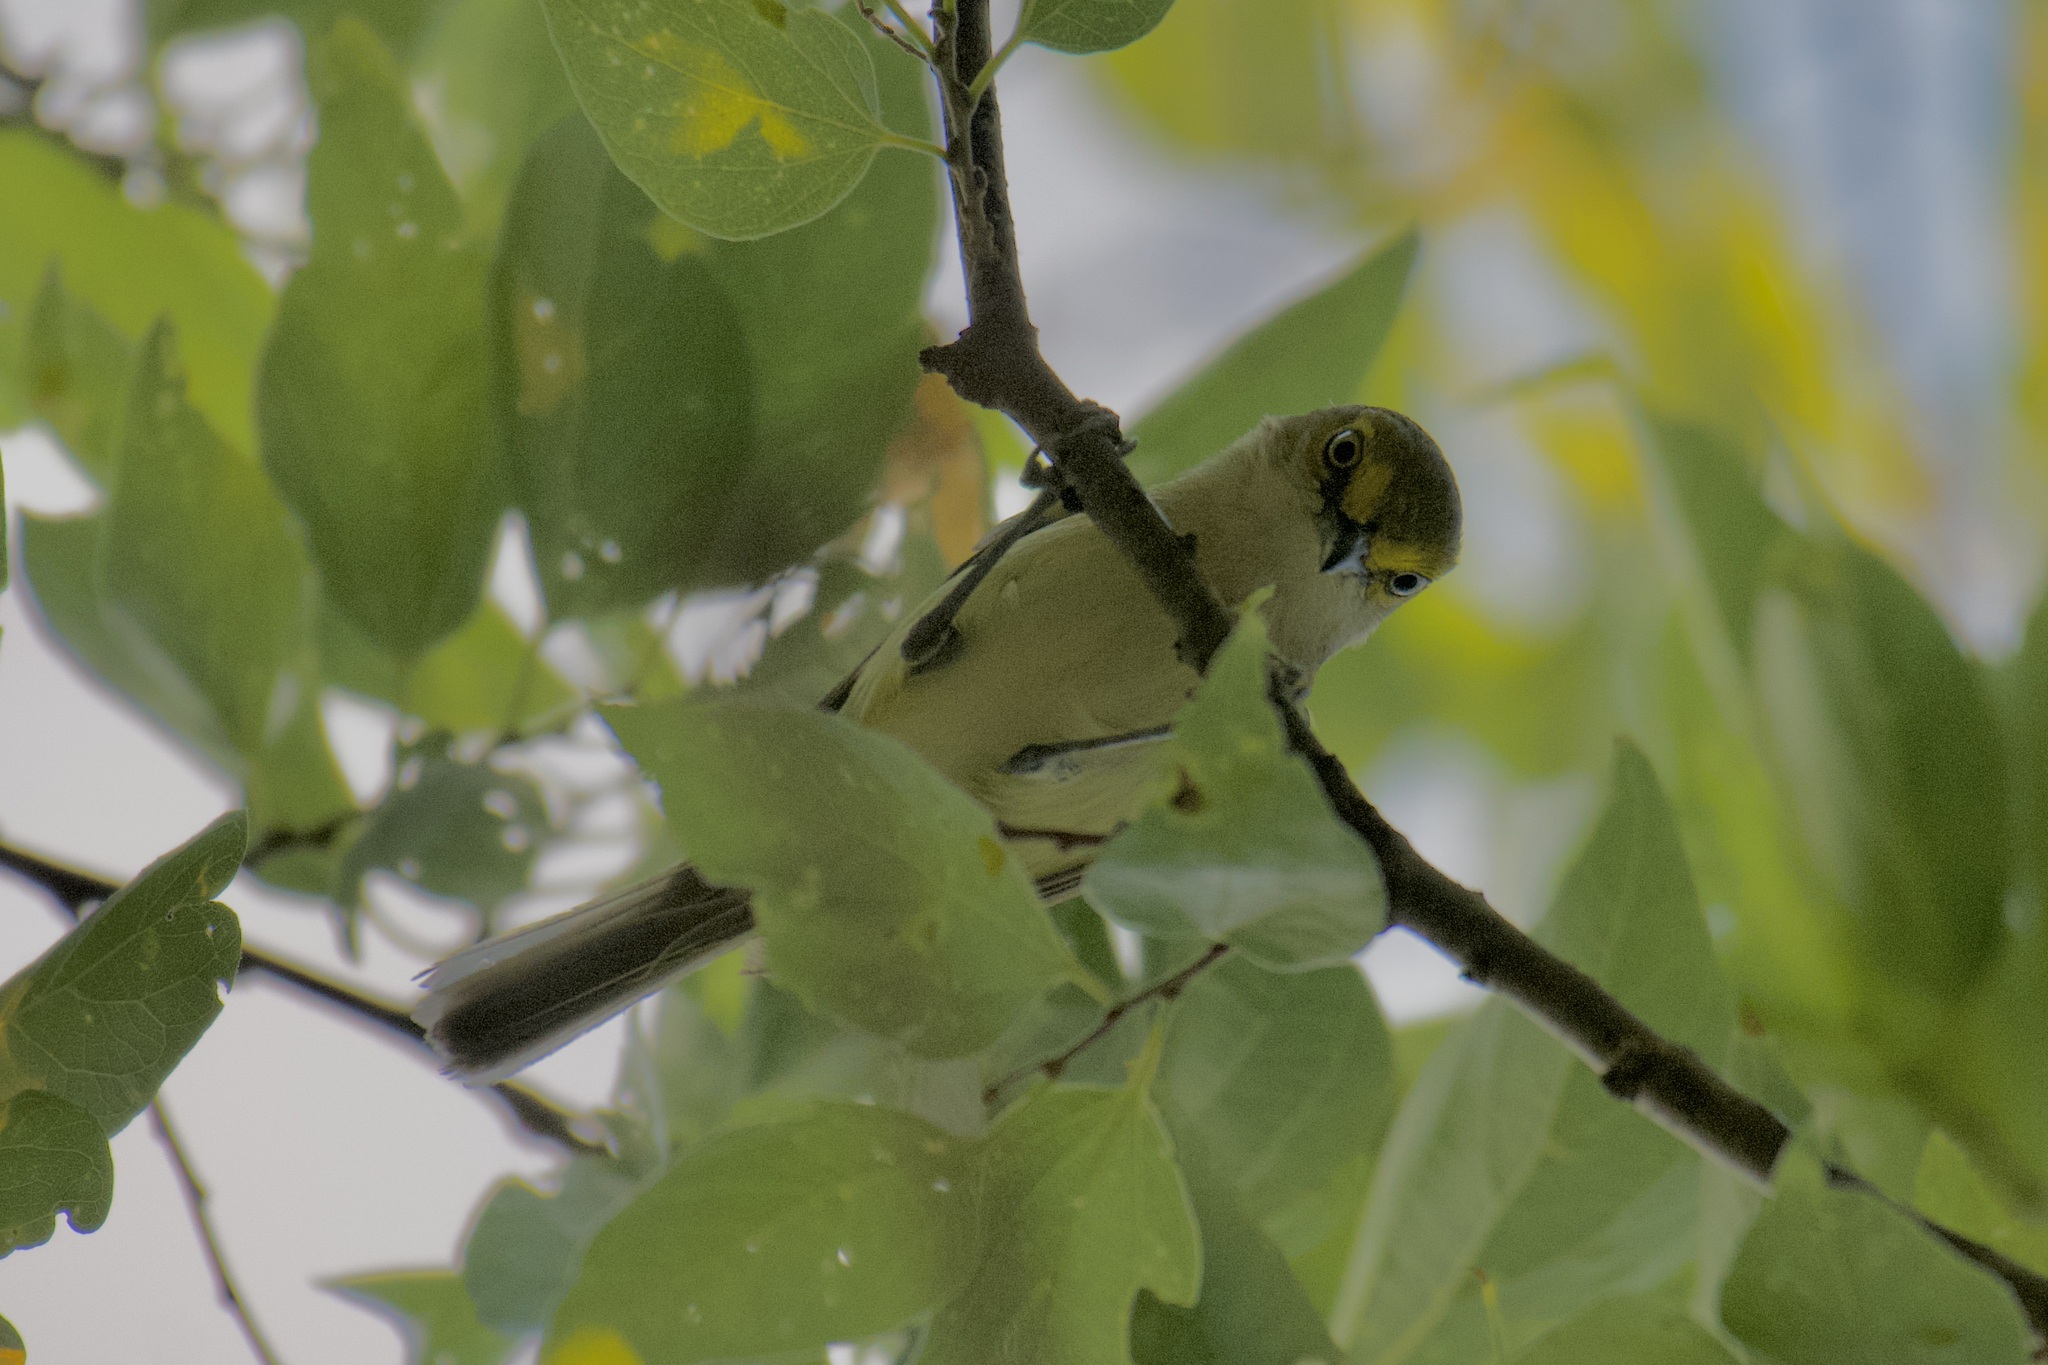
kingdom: Animalia
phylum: Chordata
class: Aves
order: Passeriformes
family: Vireonidae
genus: Vireo
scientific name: Vireo griseus
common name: White-eyed vireo
